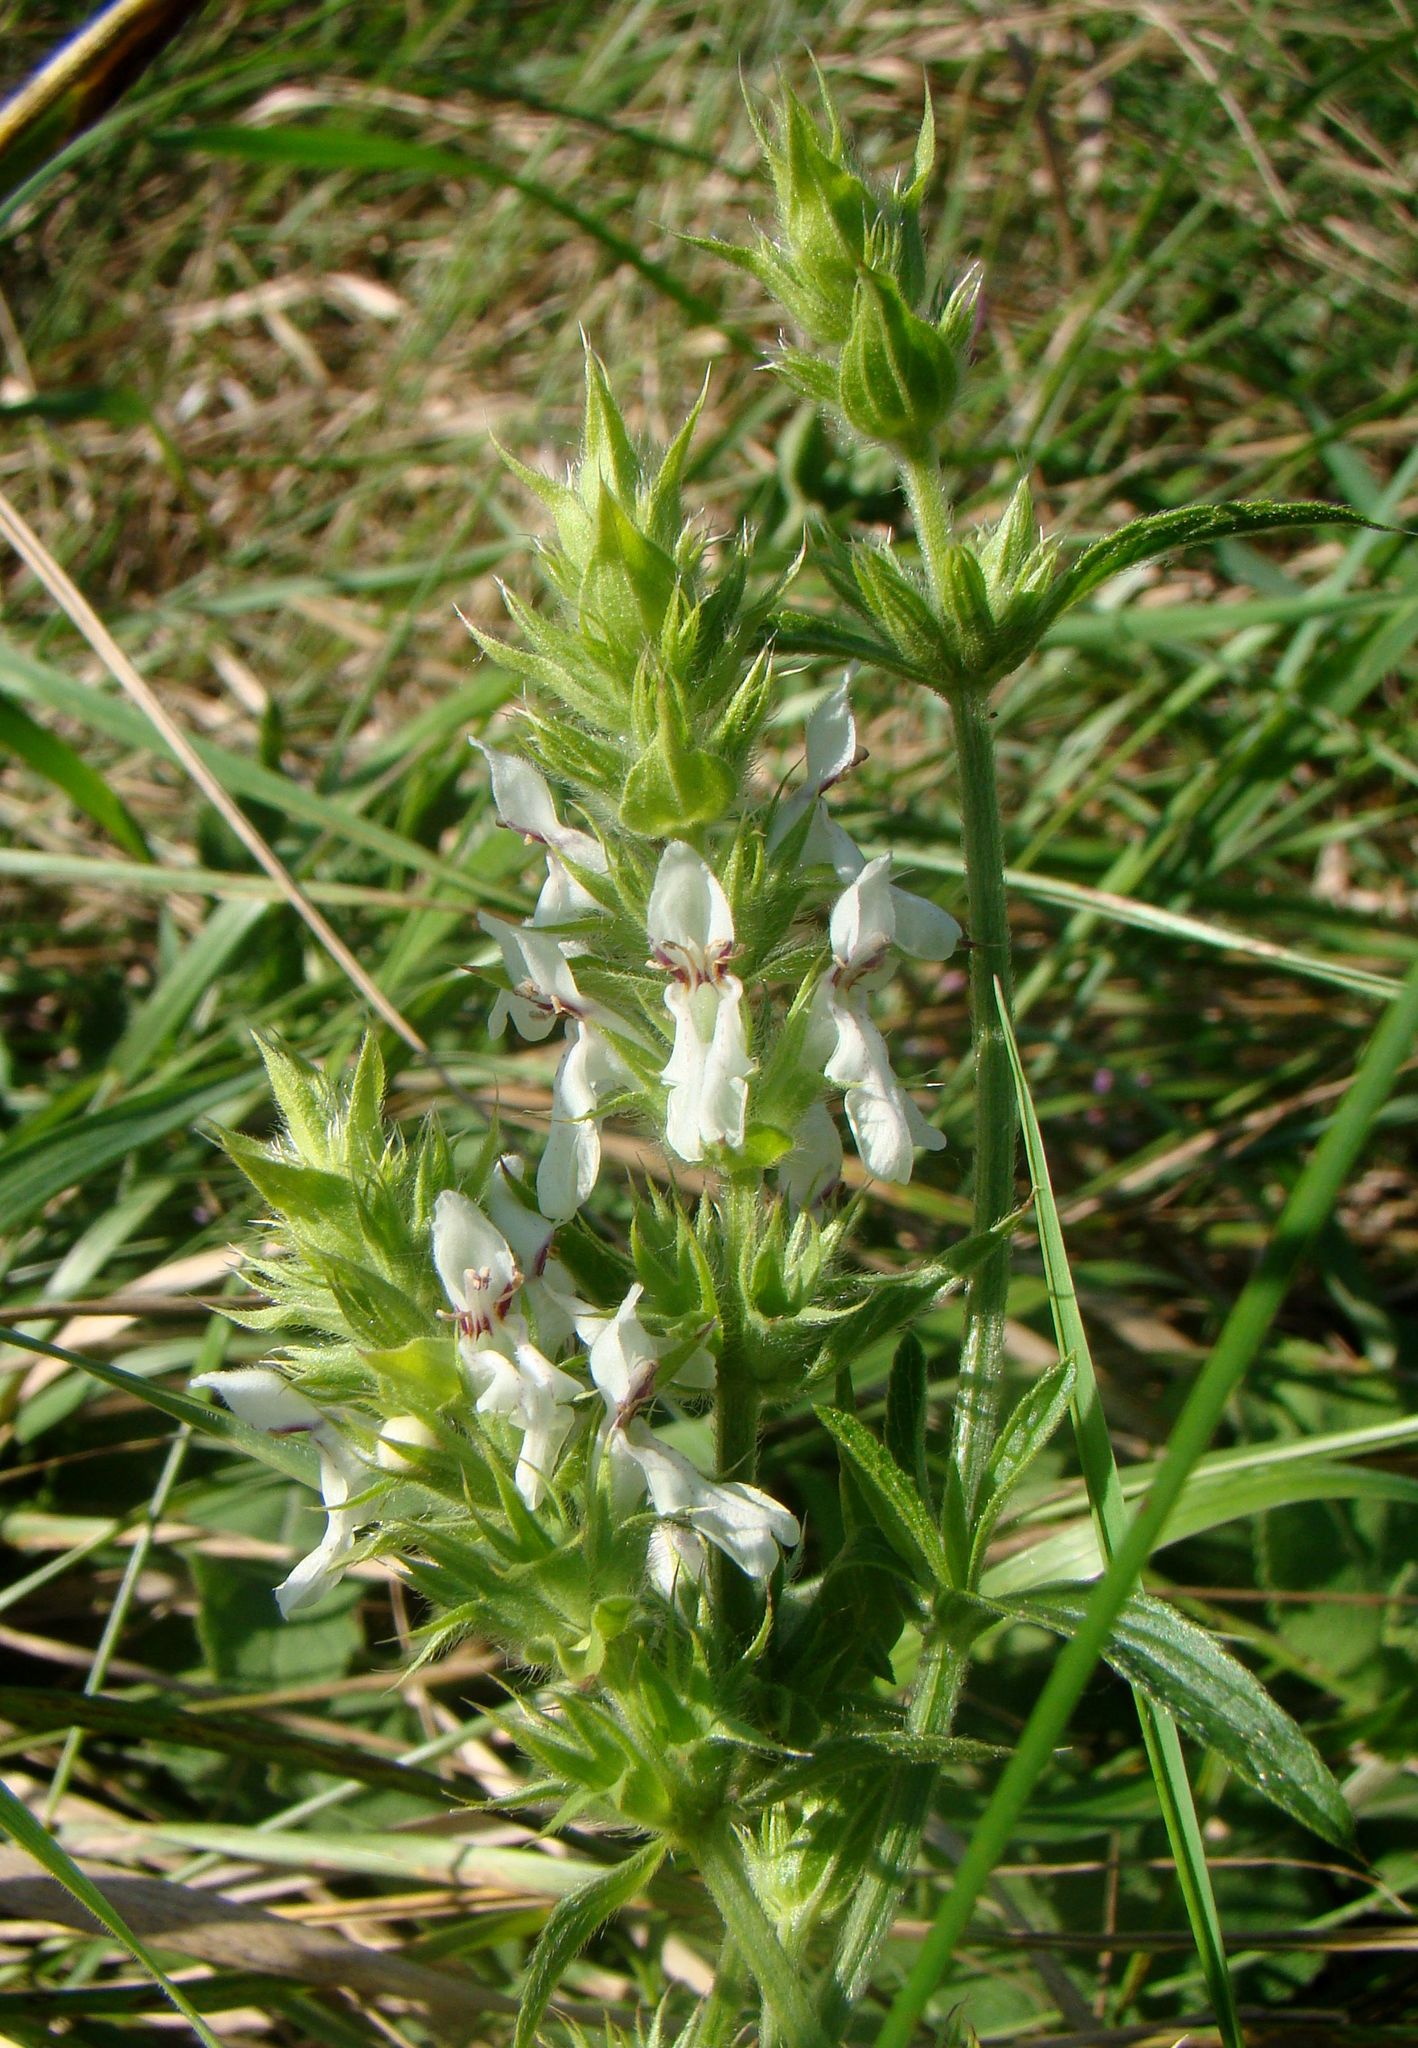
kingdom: Plantae
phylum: Tracheophyta
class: Magnoliopsida
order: Lamiales
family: Lamiaceae
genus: Stachys
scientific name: Stachys atherocalyx
